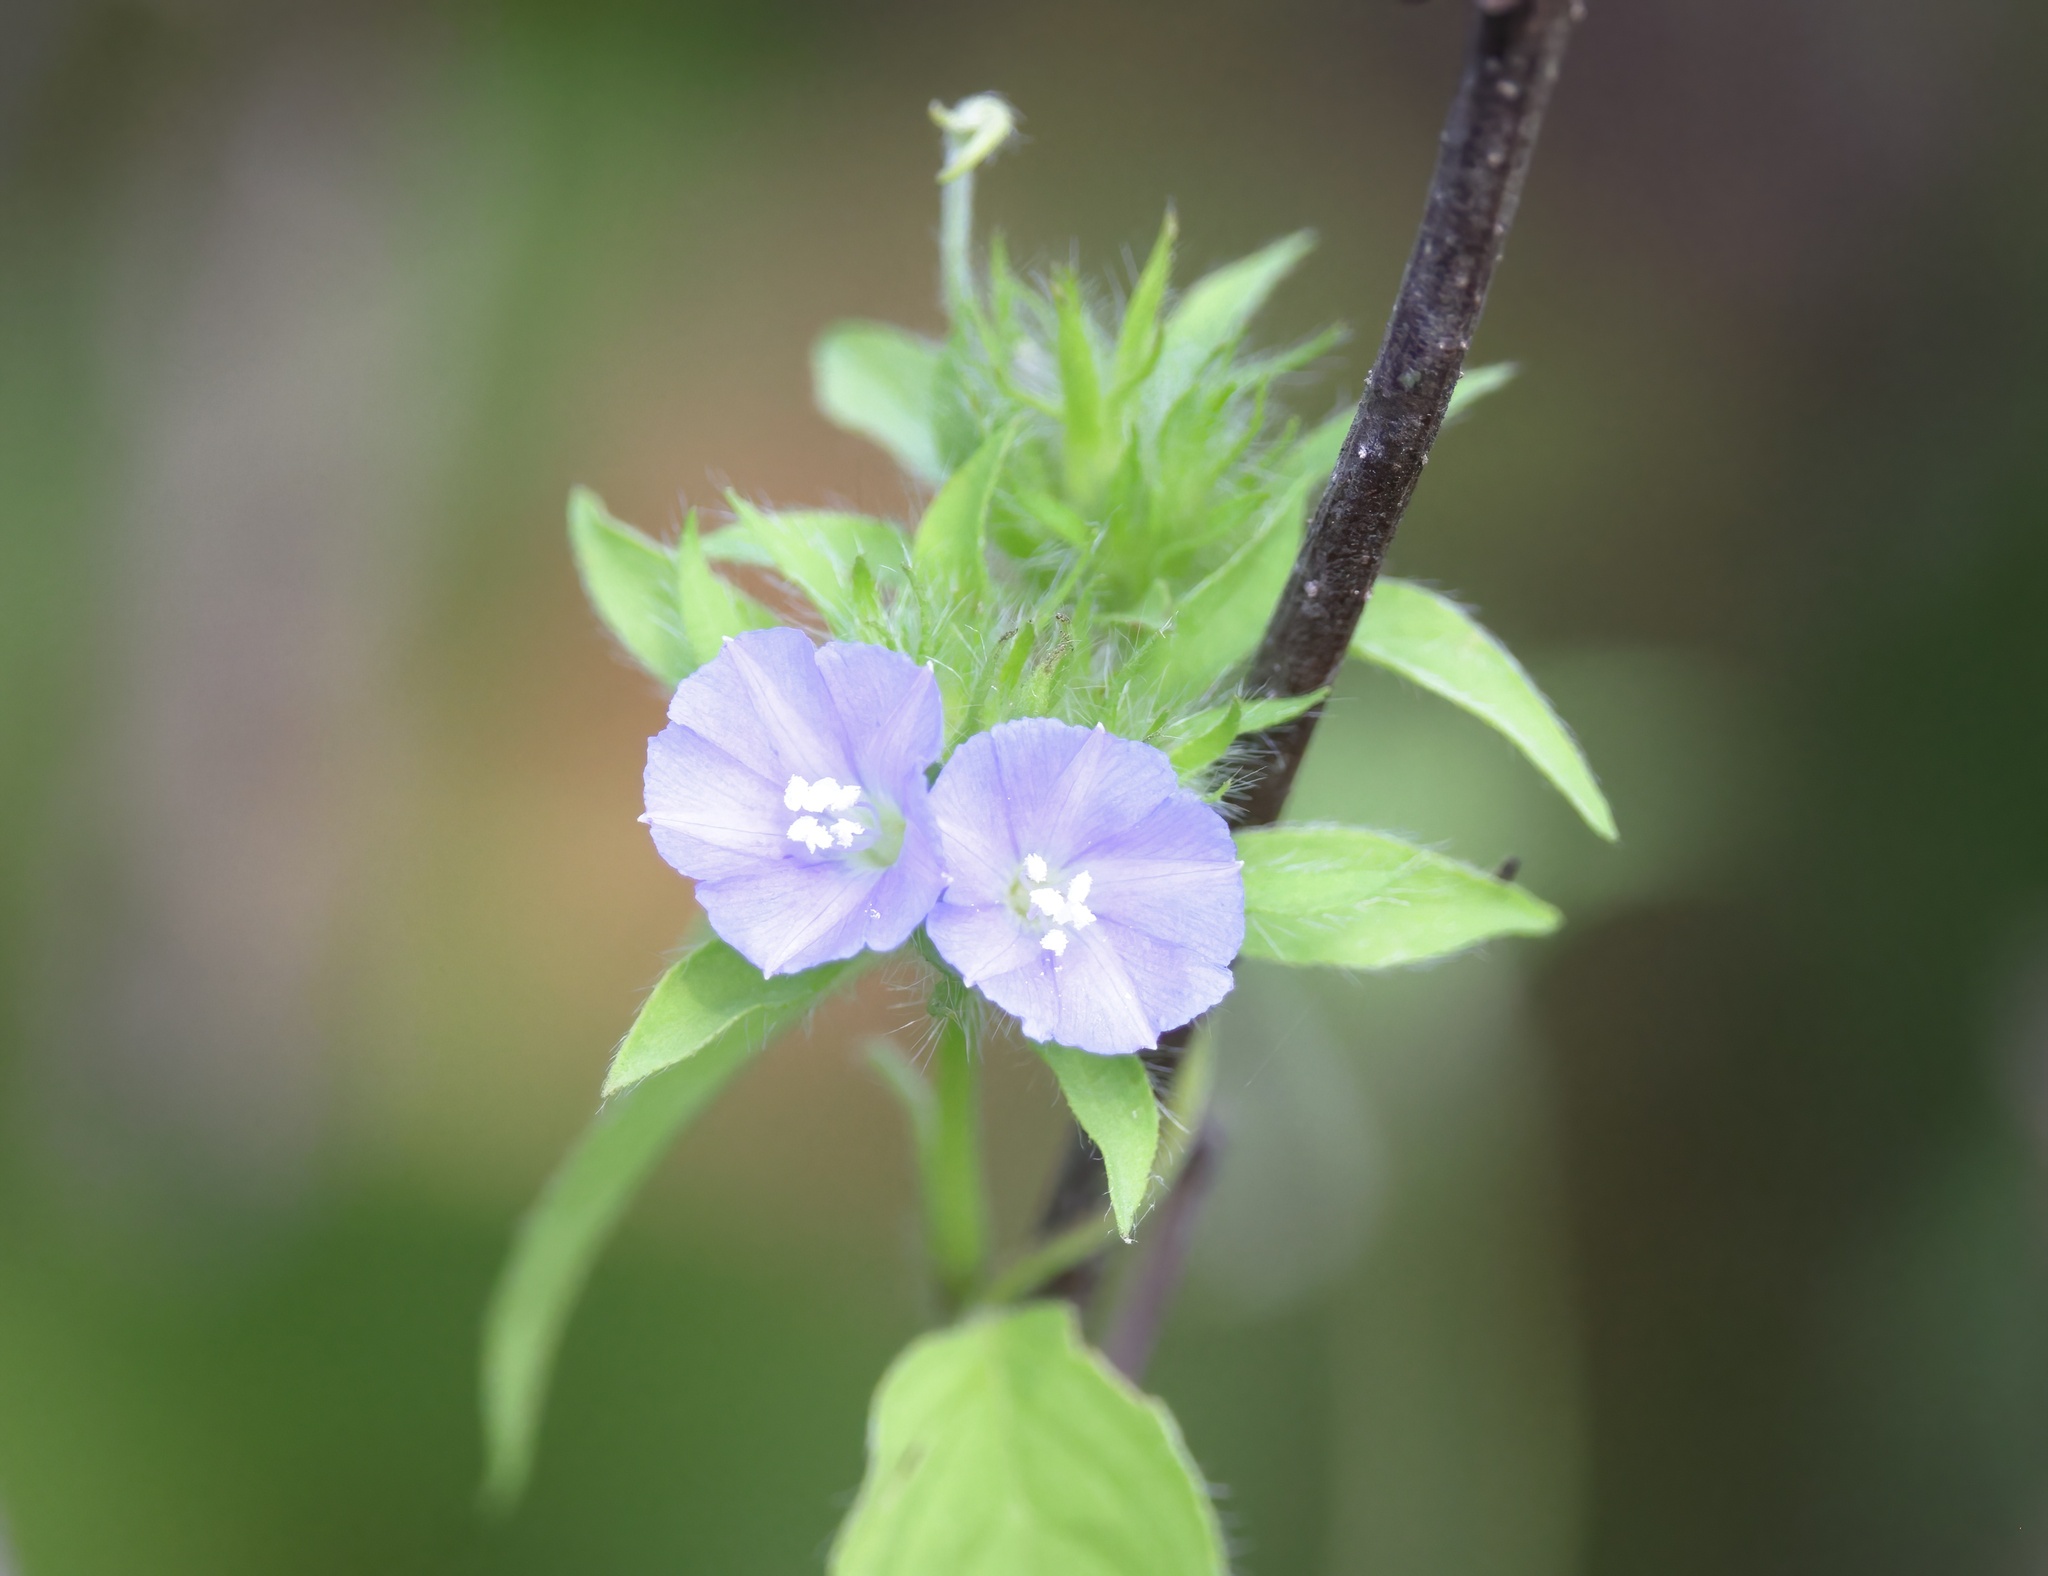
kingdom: Plantae
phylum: Tracheophyta
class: Magnoliopsida
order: Solanales
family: Convolvulaceae
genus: Jacquemontia
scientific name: Jacquemontia tamnifolia
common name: Hairy clustervine
